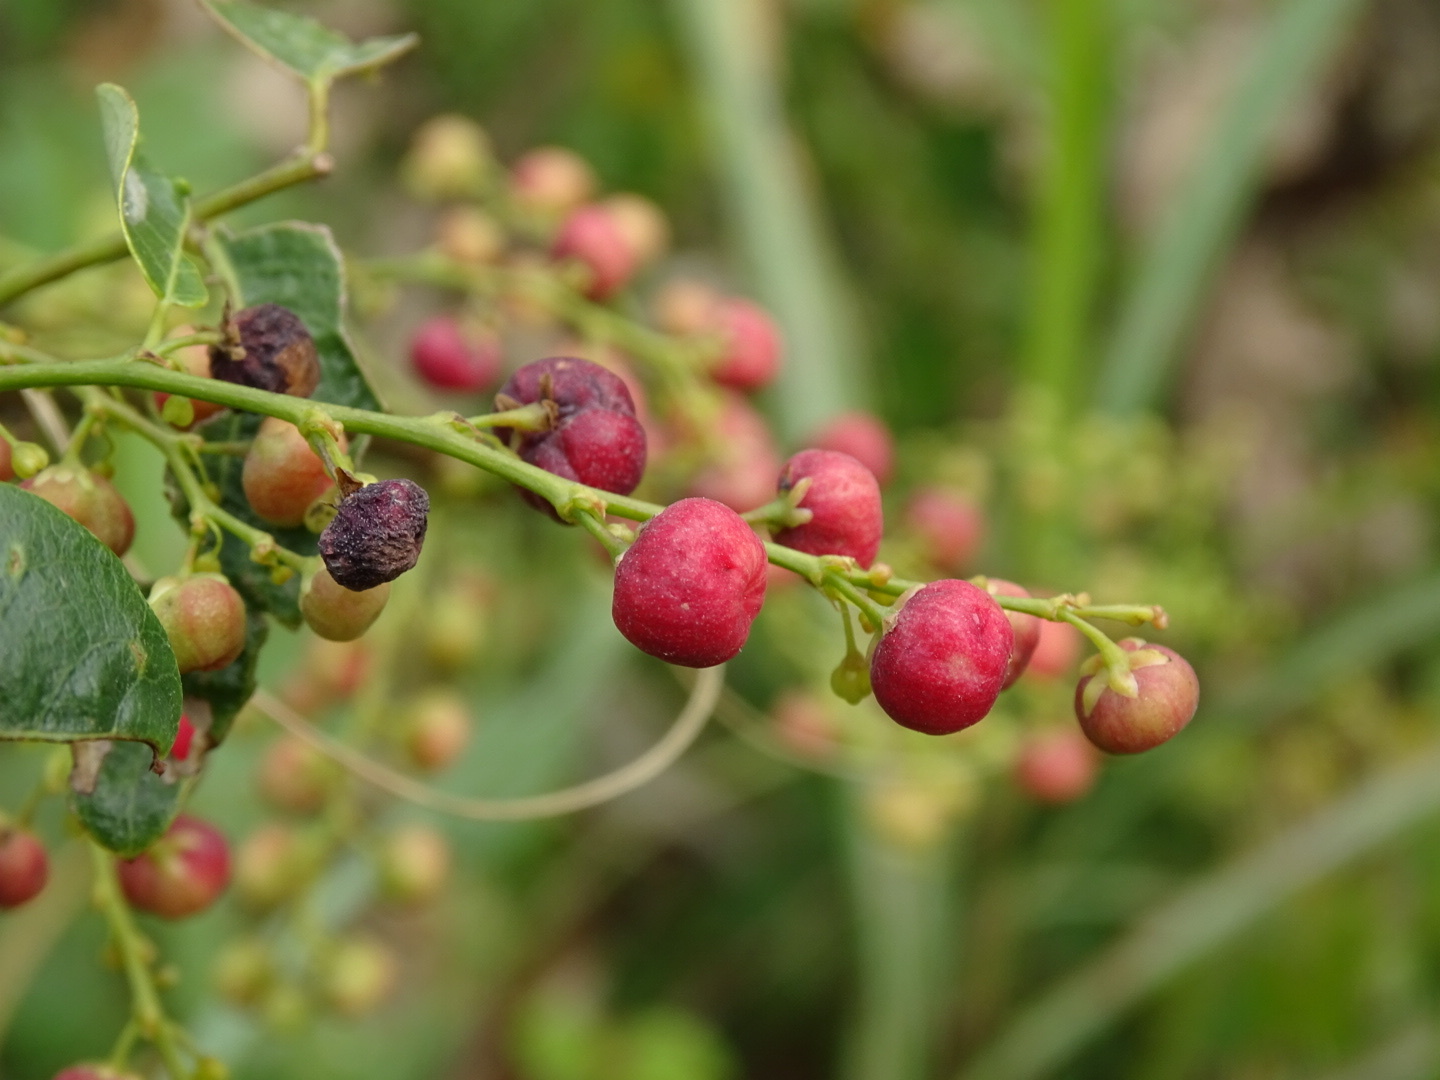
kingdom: Plantae
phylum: Tracheophyta
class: Magnoliopsida
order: Malpighiales
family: Phyllanthaceae
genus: Phyllanthus
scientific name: Phyllanthus reticulatus
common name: Potato bush
